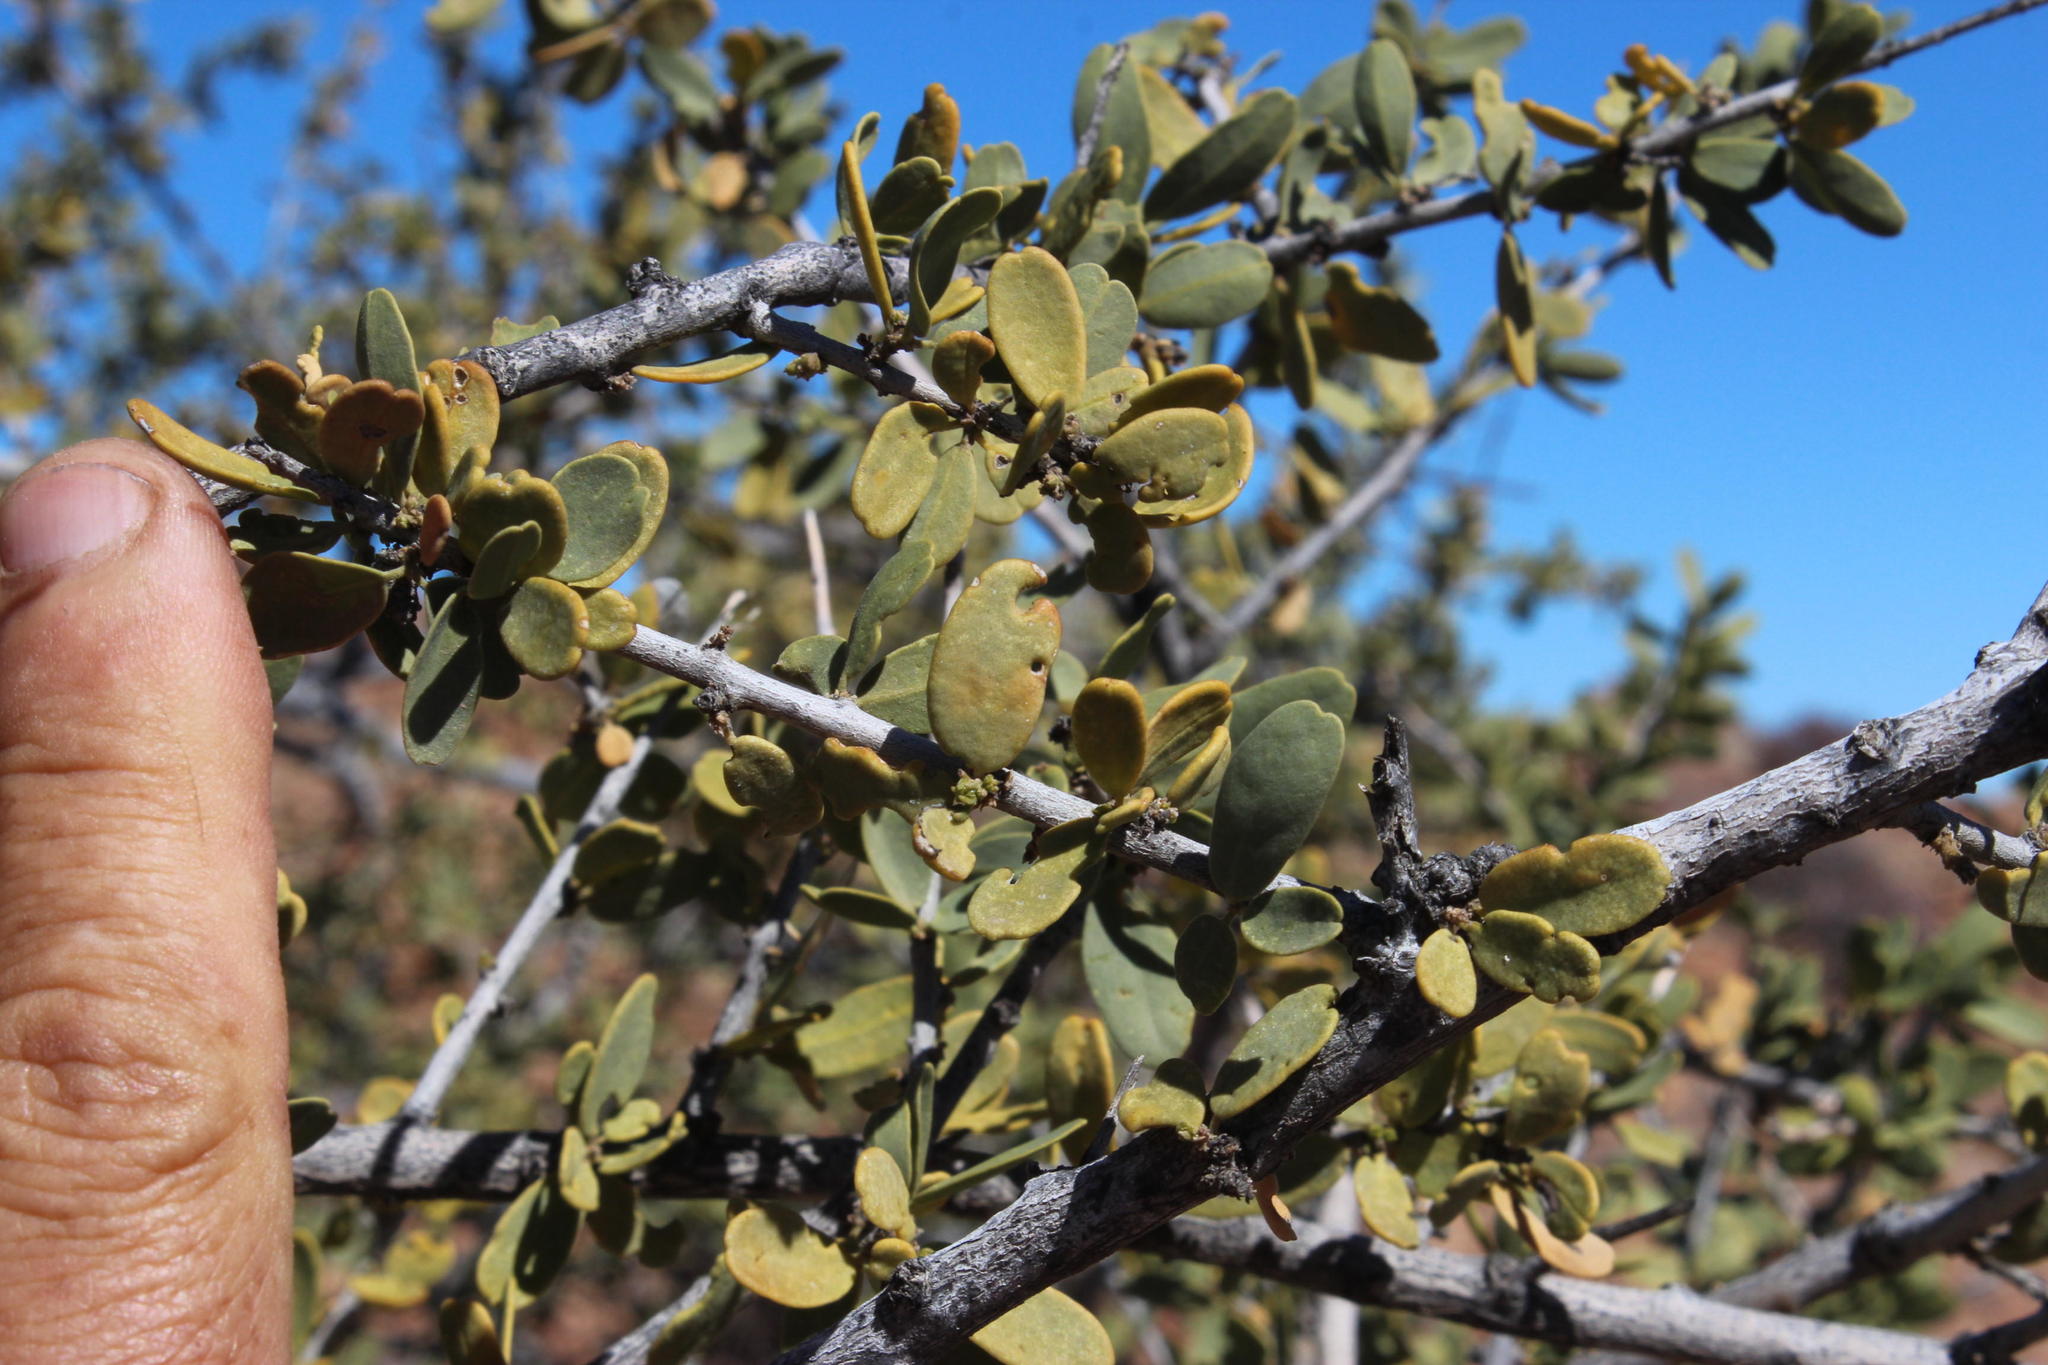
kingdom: Plantae
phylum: Tracheophyta
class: Magnoliopsida
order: Brassicales
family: Capparaceae
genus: Boscia
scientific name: Boscia albitrunca
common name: Caper bush
